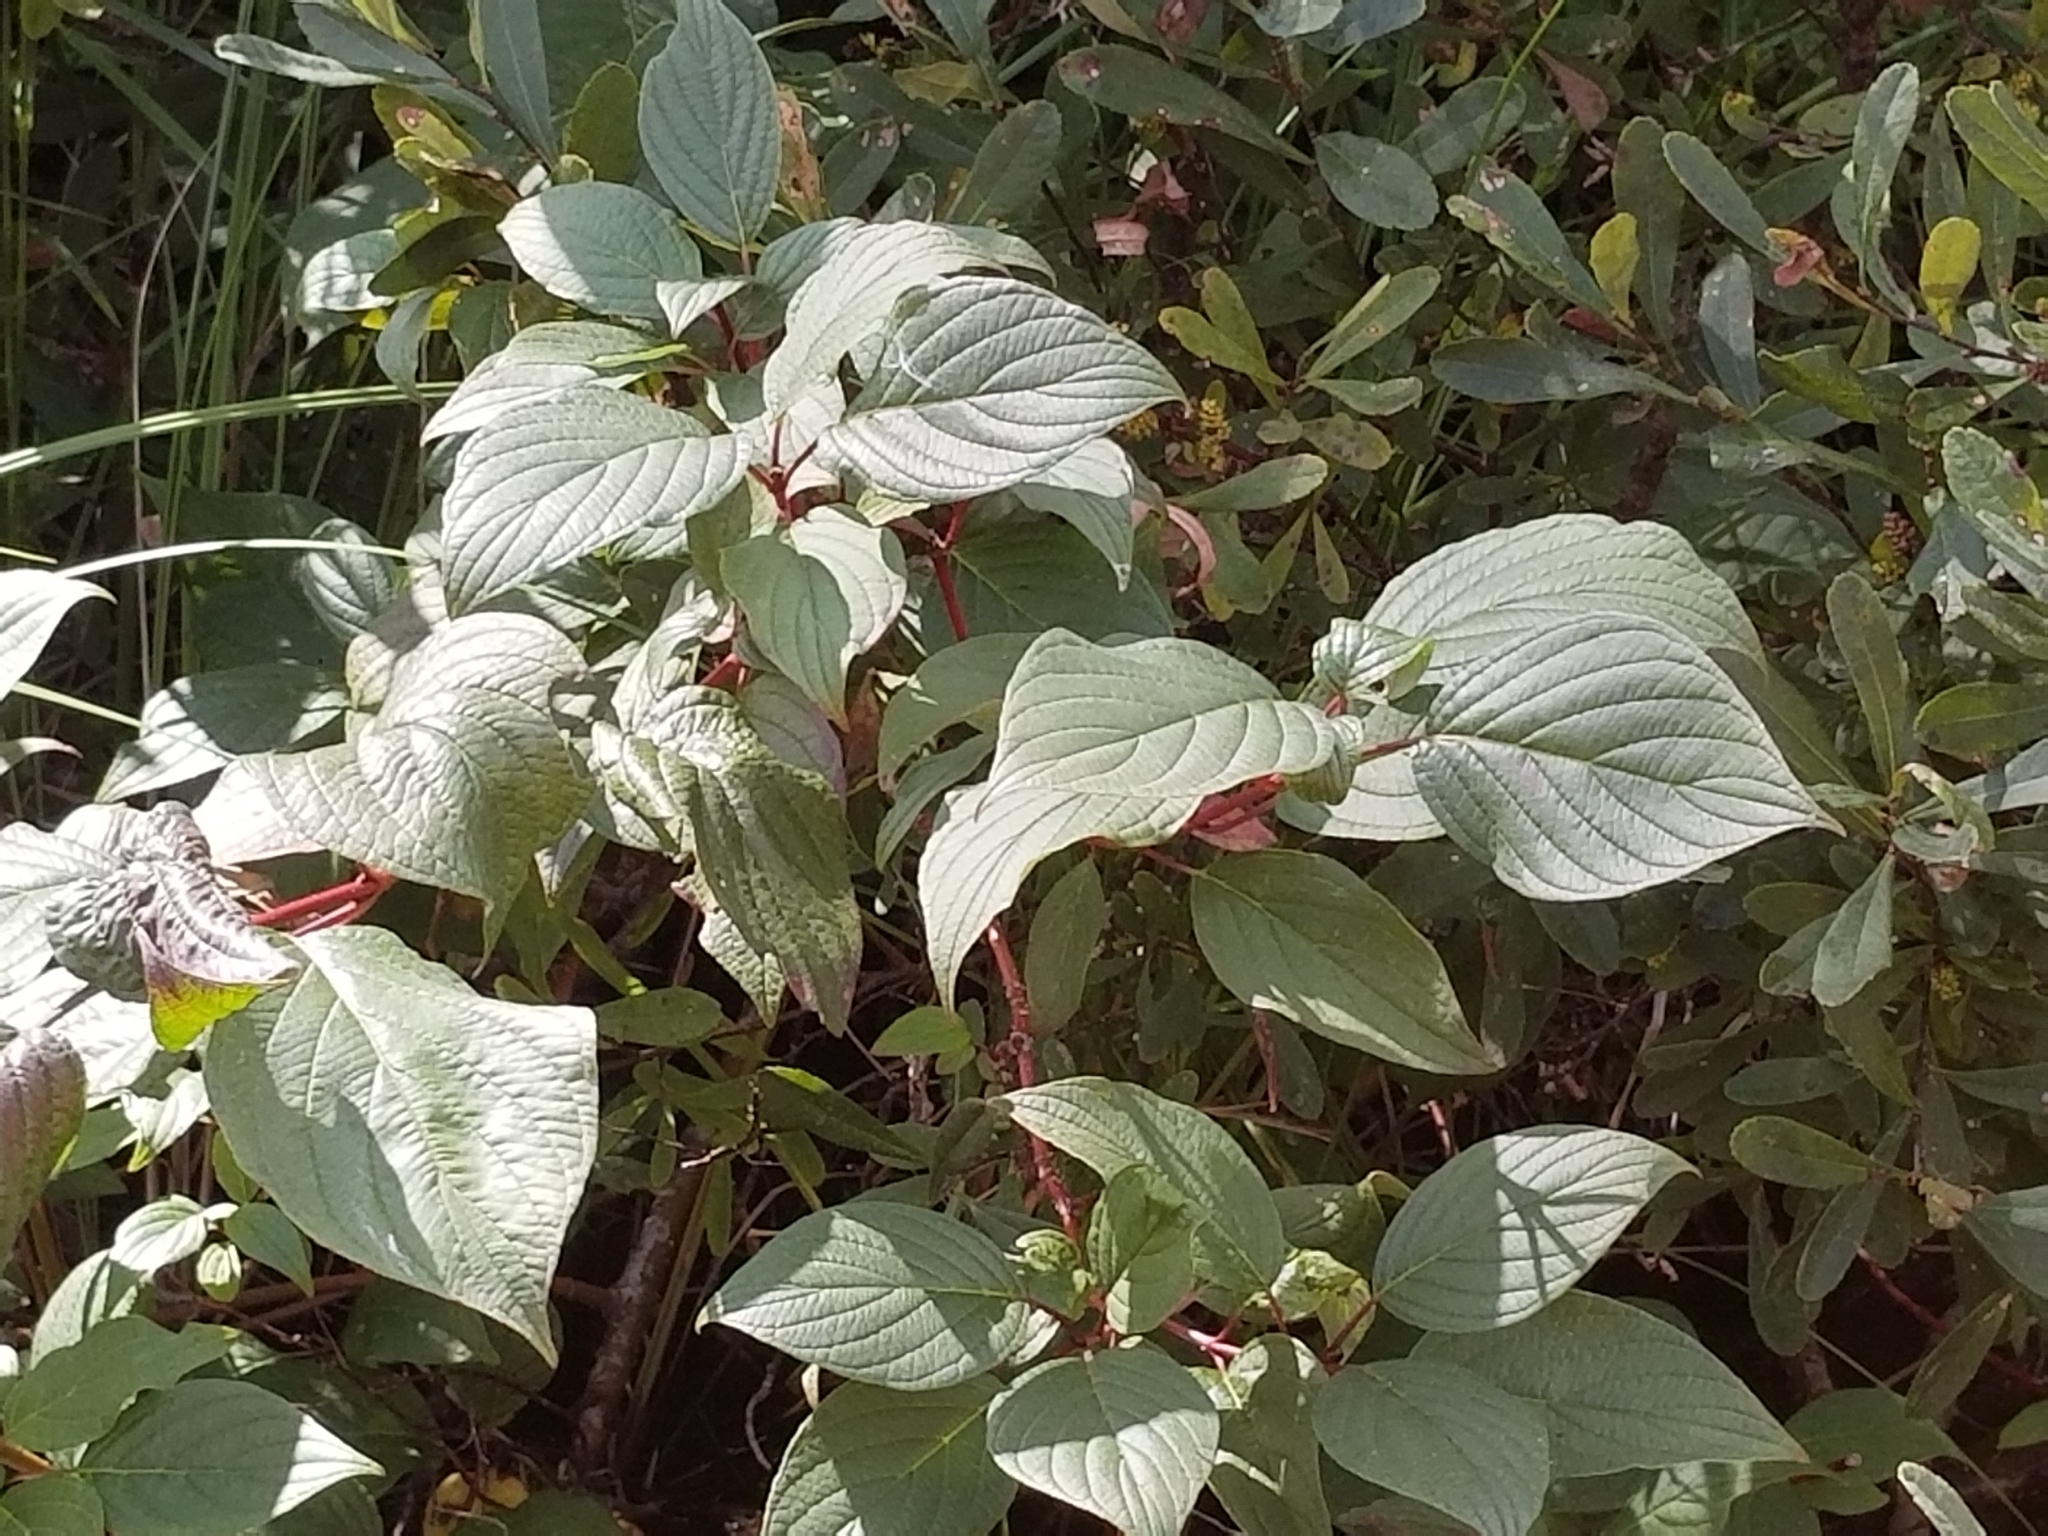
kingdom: Plantae
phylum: Tracheophyta
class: Magnoliopsida
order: Cornales
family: Cornaceae
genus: Cornus
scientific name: Cornus sericea
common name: Red-osier dogwood
